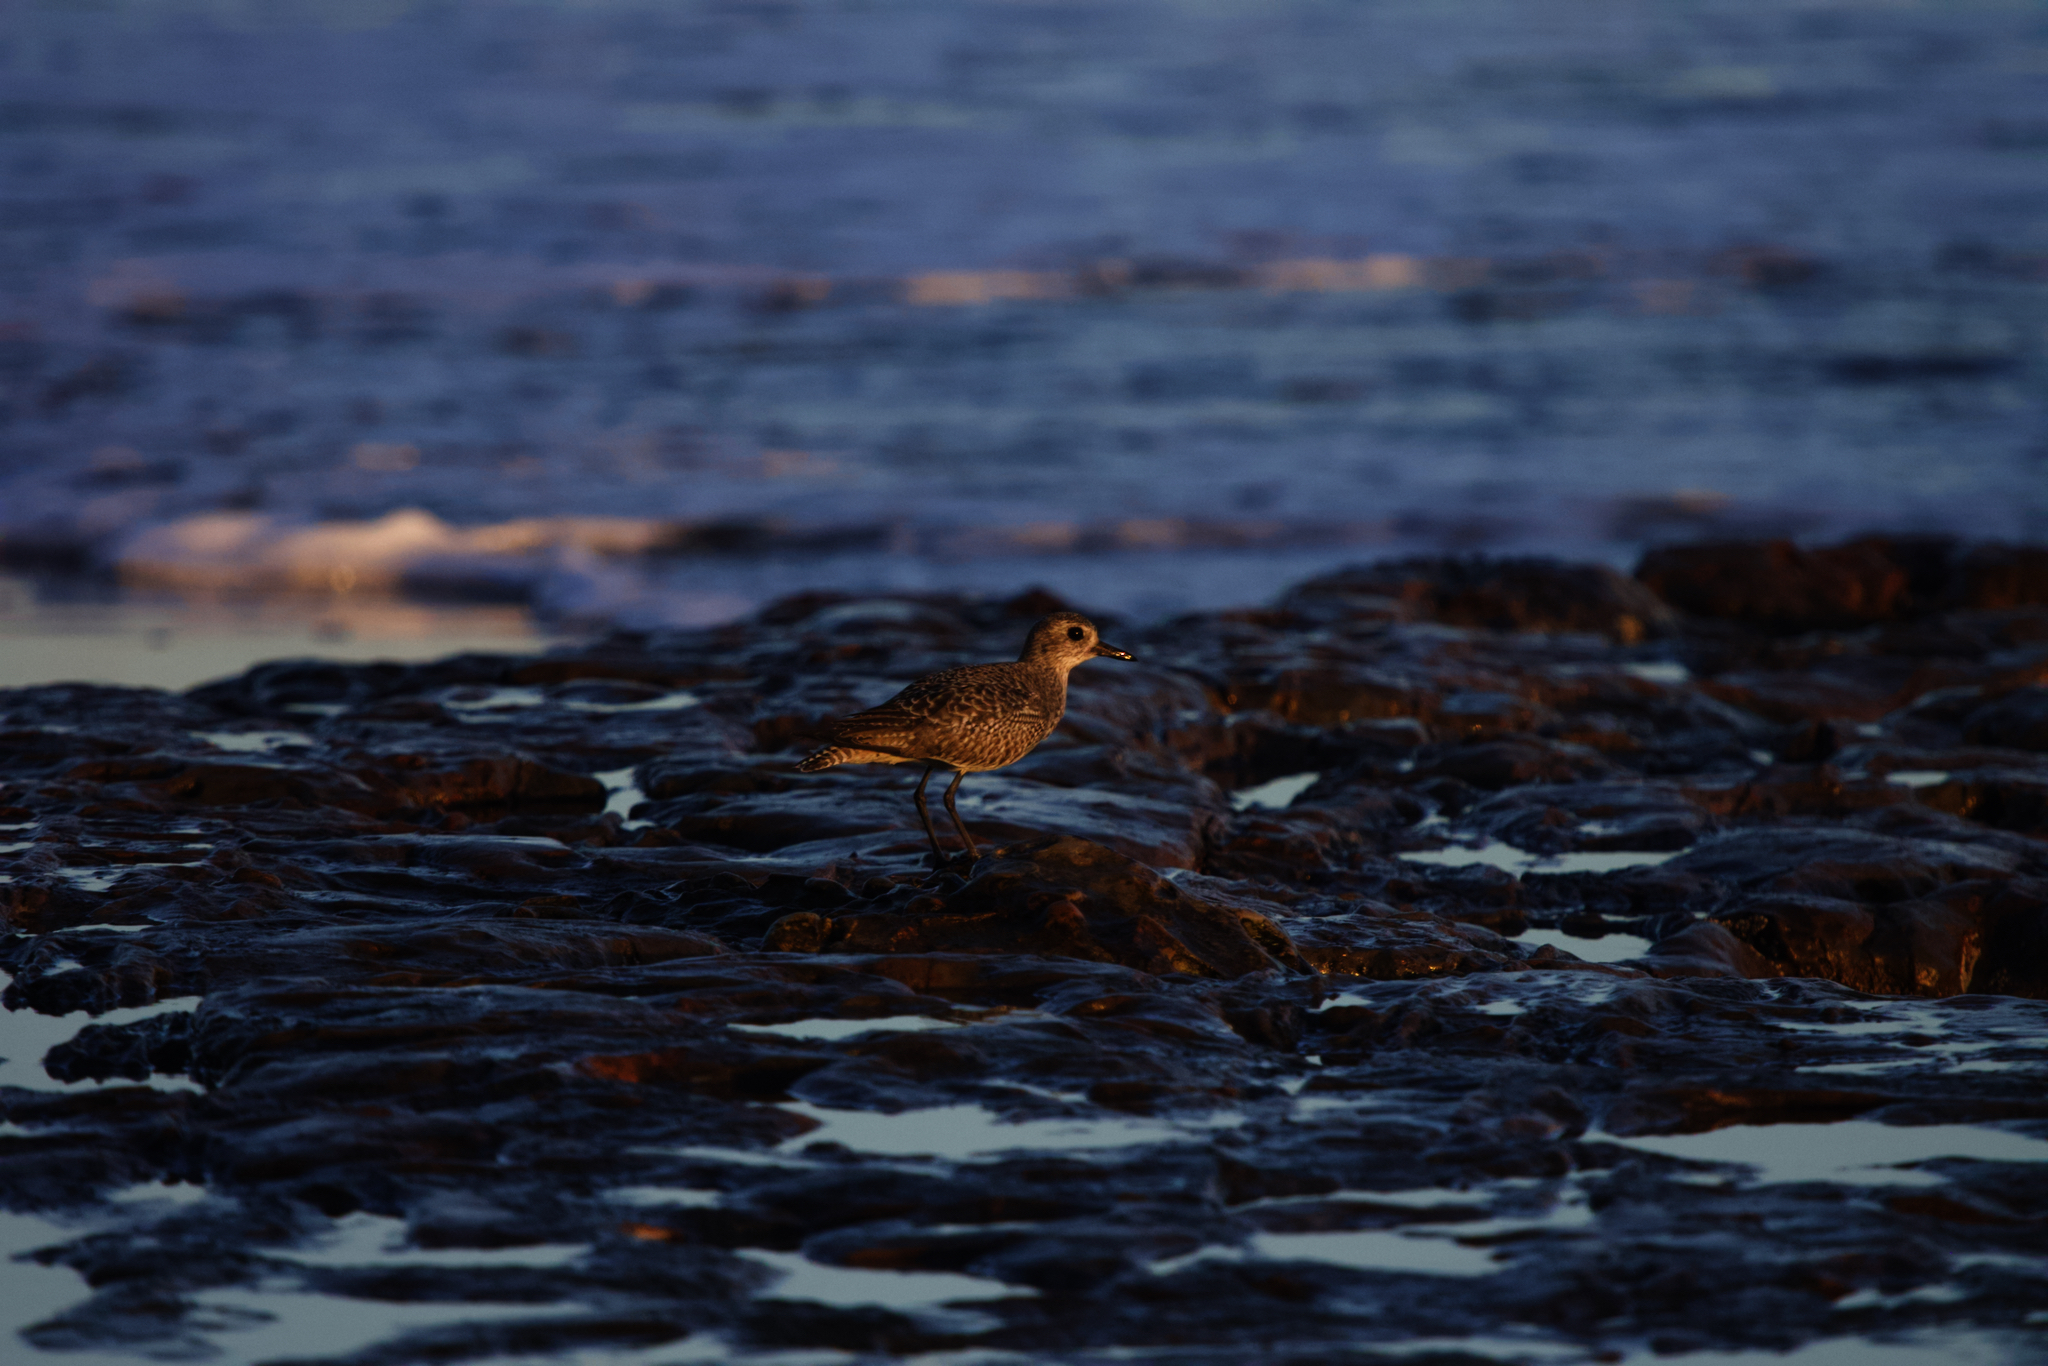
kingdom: Animalia
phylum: Chordata
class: Aves
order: Charadriiformes
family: Charadriidae
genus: Pluvialis
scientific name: Pluvialis squatarola
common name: Grey plover
